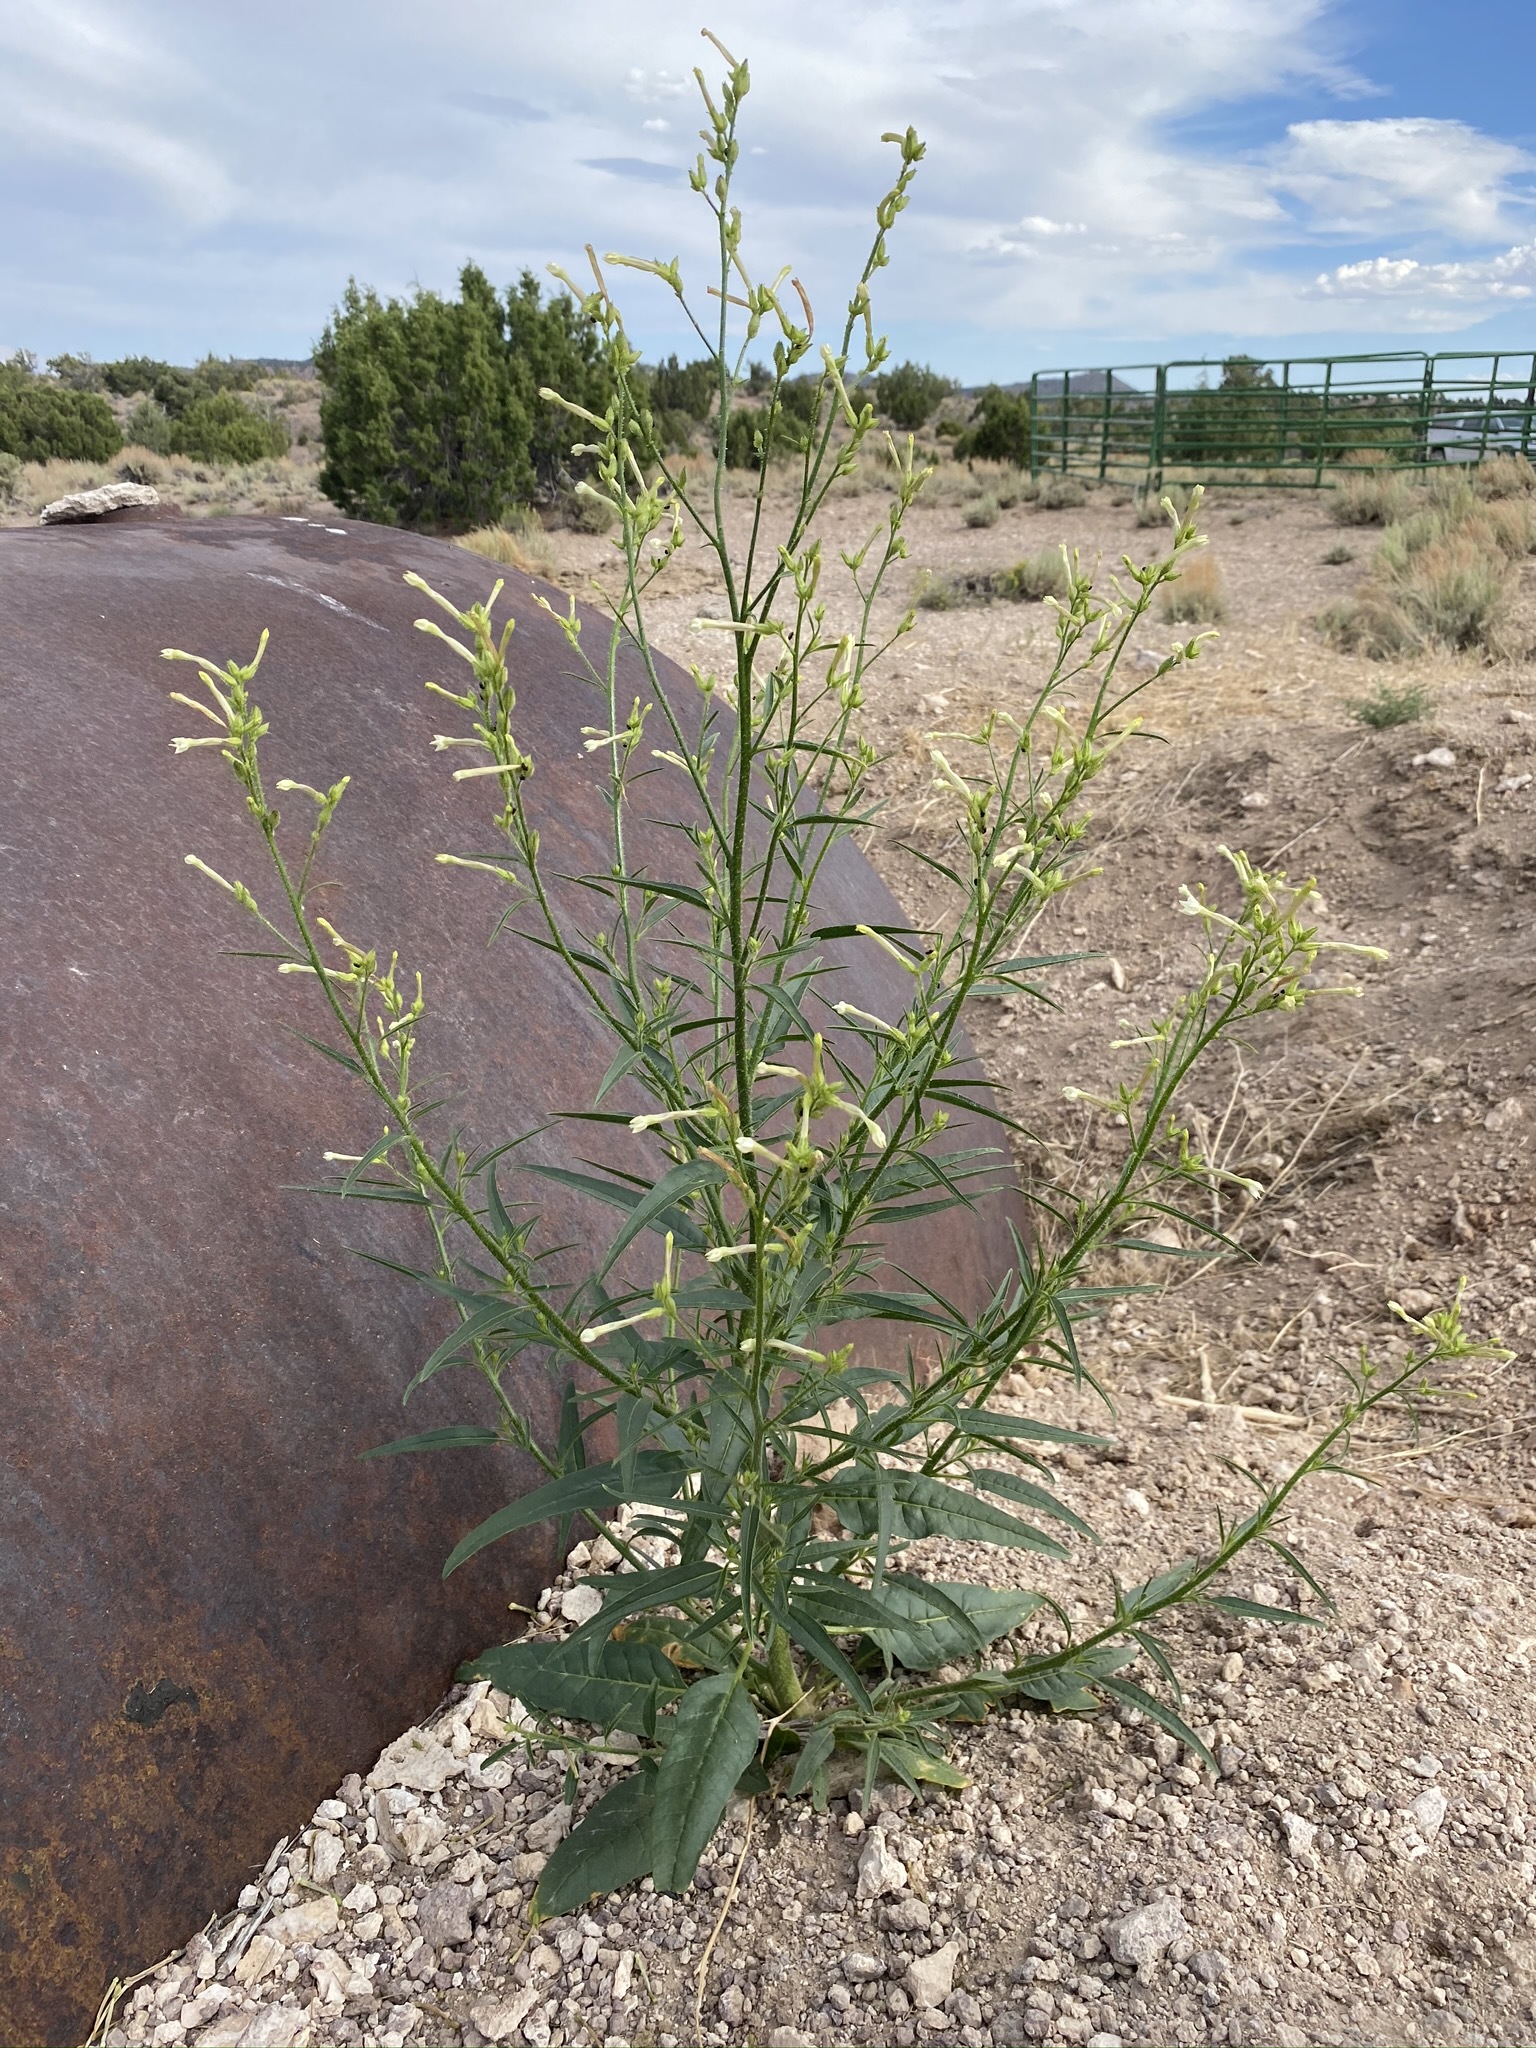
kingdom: Plantae
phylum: Tracheophyta
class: Magnoliopsida
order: Solanales
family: Solanaceae
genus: Nicotiana
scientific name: Nicotiana attenuata
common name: Coyote tobacco
